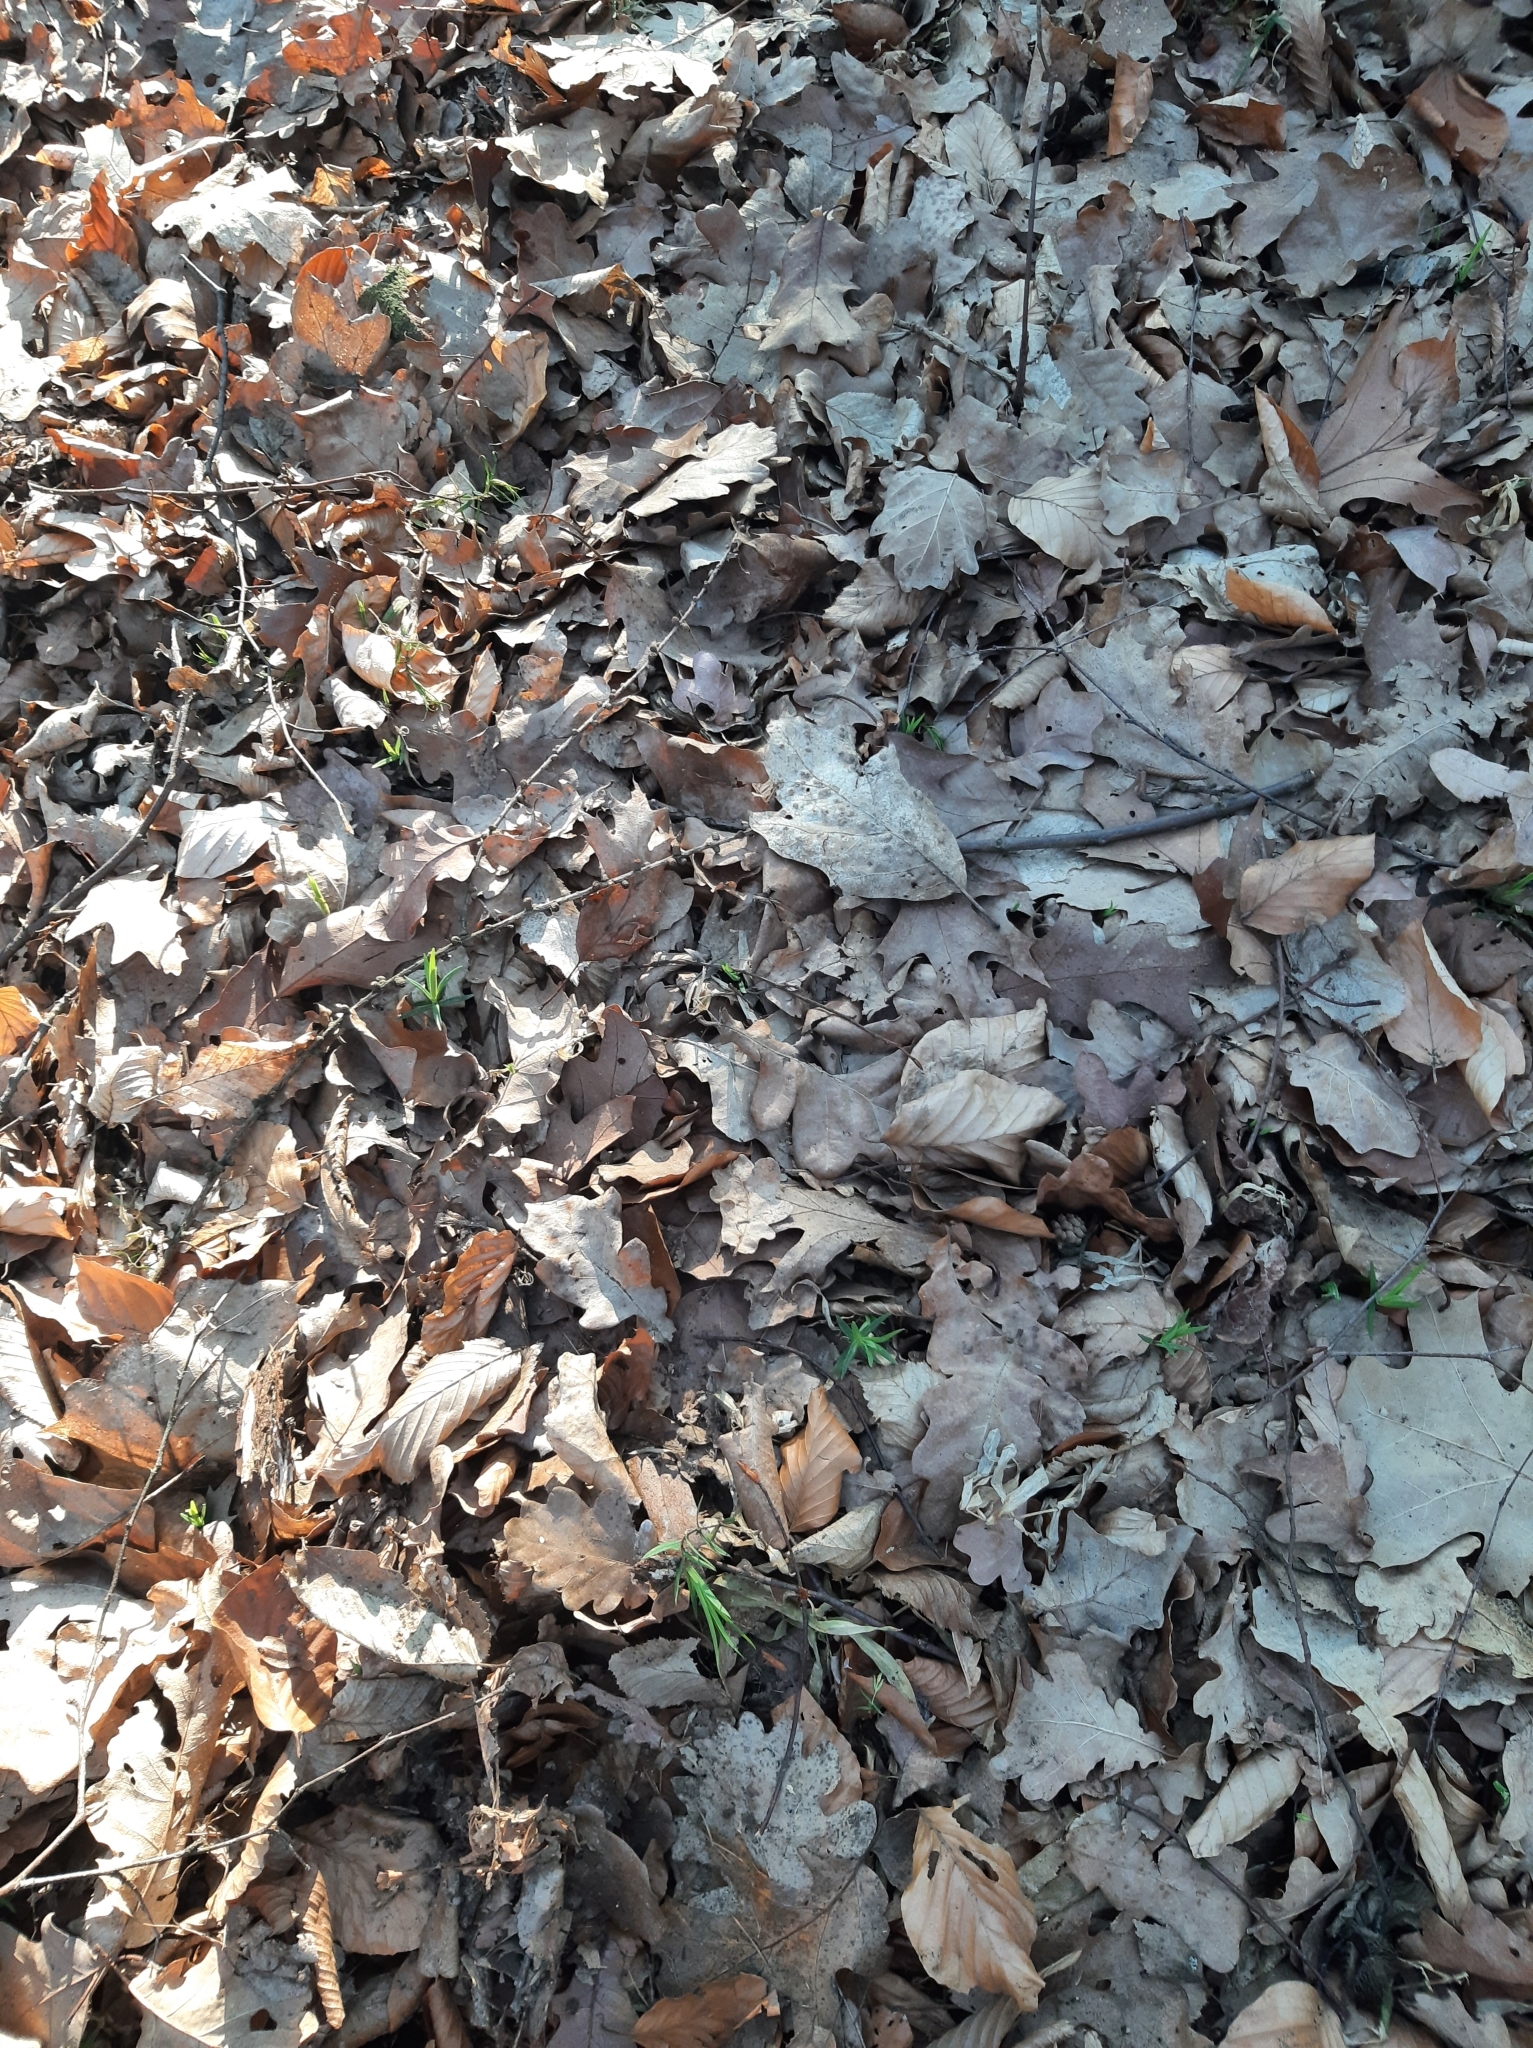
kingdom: Plantae
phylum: Tracheophyta
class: Magnoliopsida
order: Caryophyllales
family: Caryophyllaceae
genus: Rabelera
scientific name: Rabelera holostea
